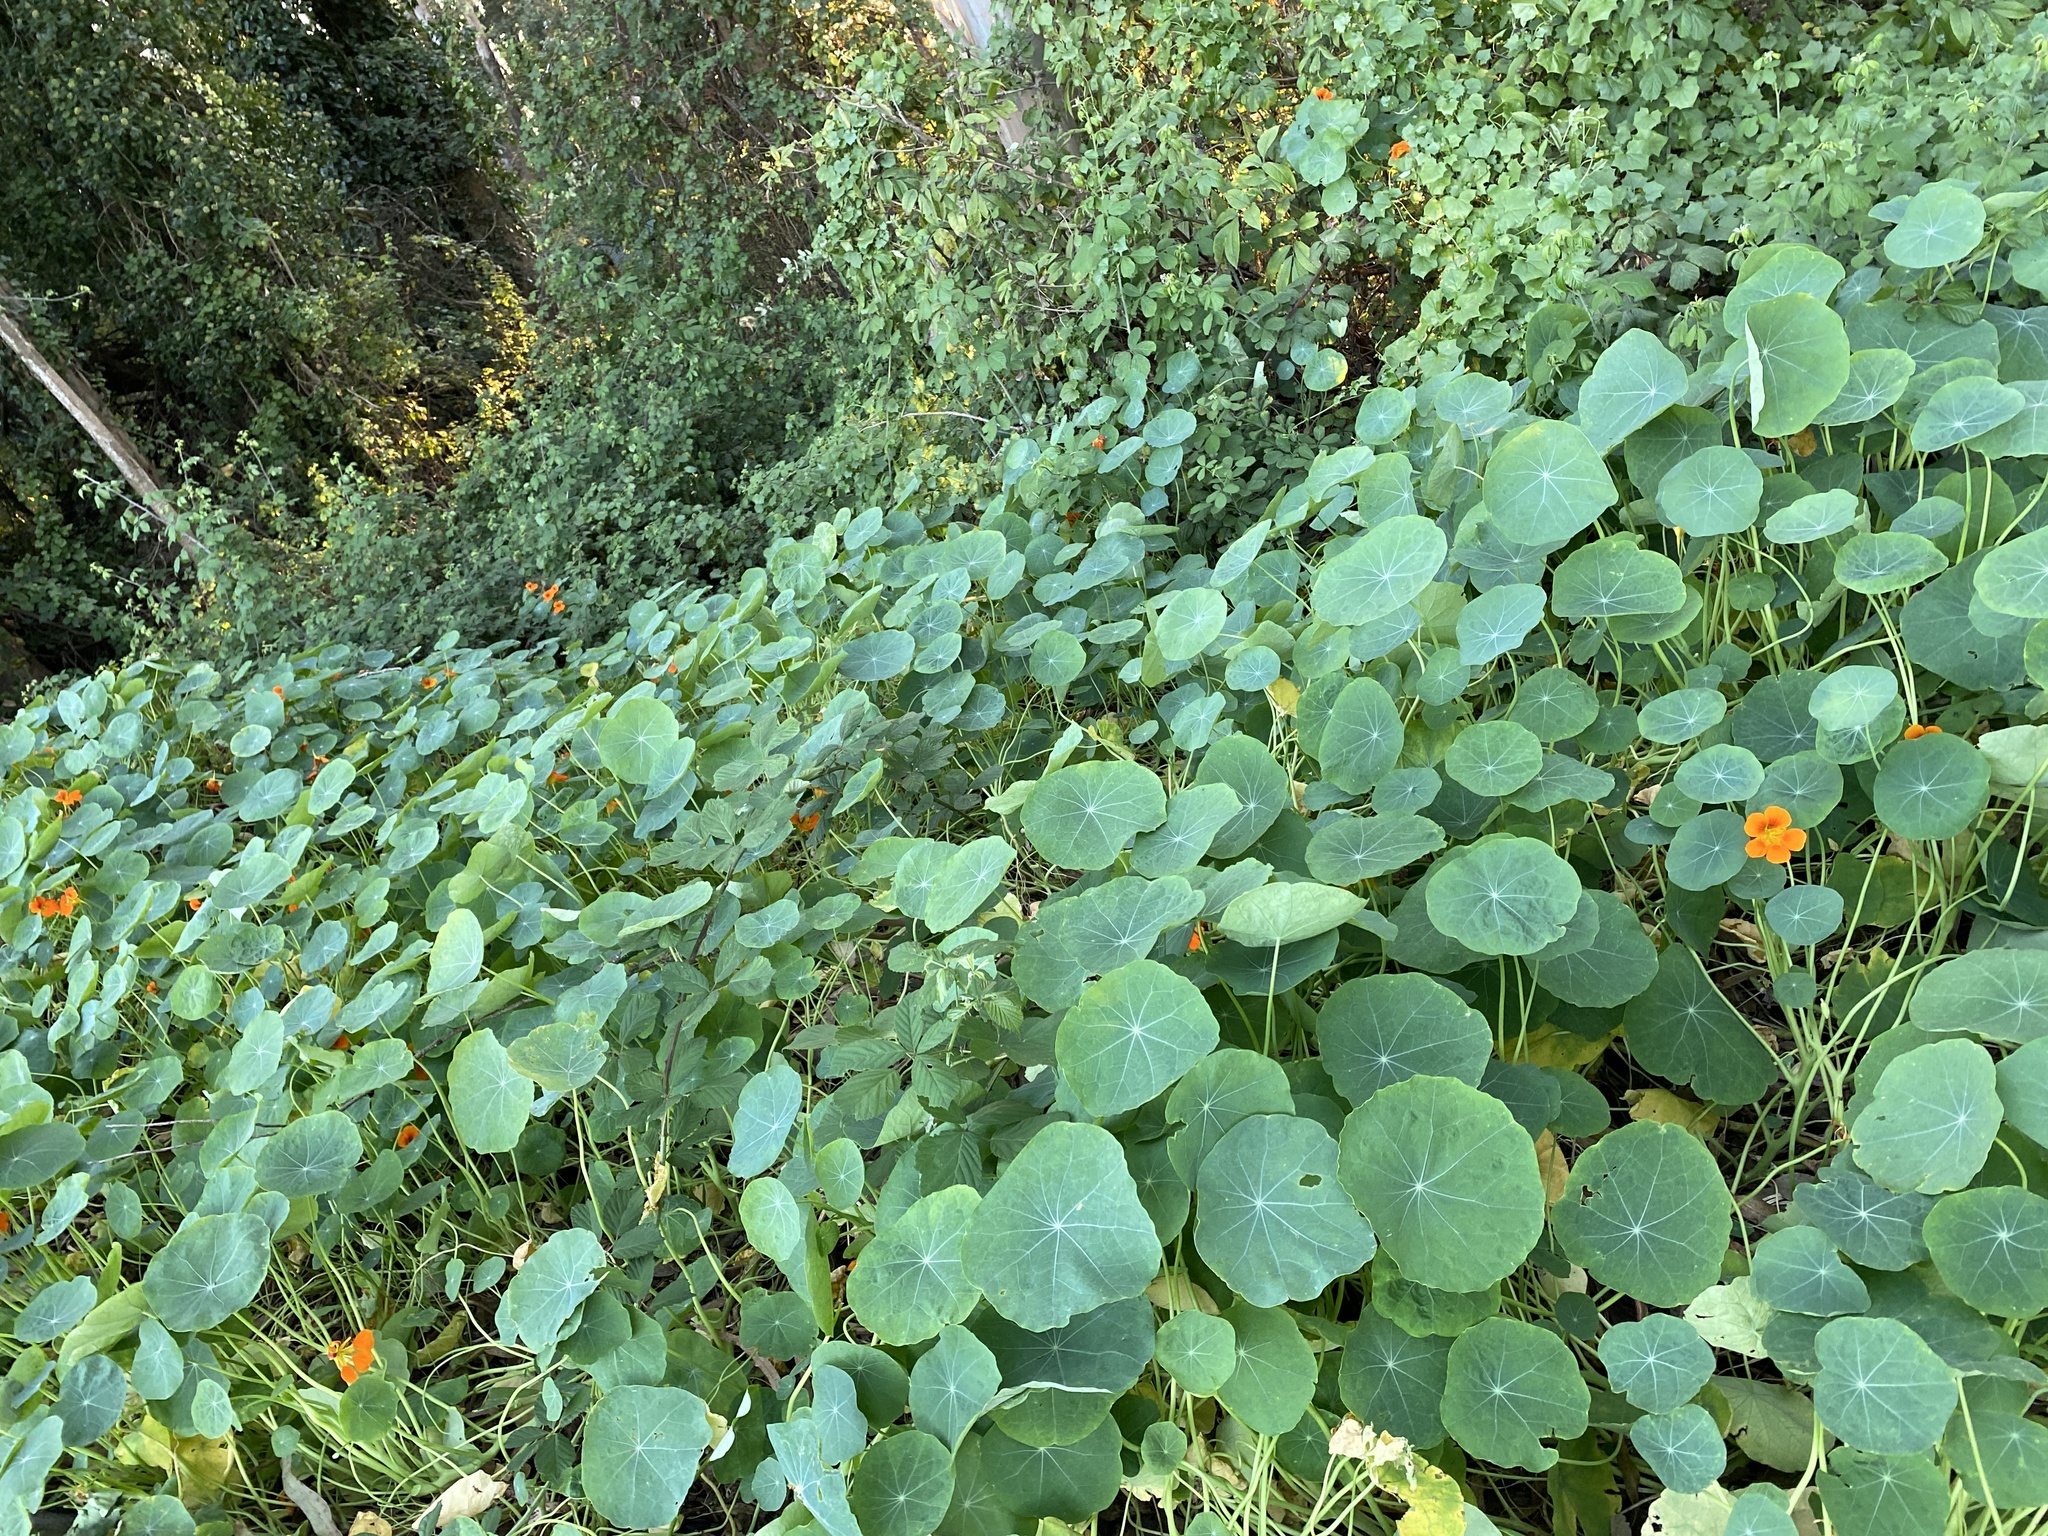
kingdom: Plantae
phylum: Tracheophyta
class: Magnoliopsida
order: Brassicales
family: Tropaeolaceae
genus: Tropaeolum
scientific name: Tropaeolum majus
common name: Nasturtium
